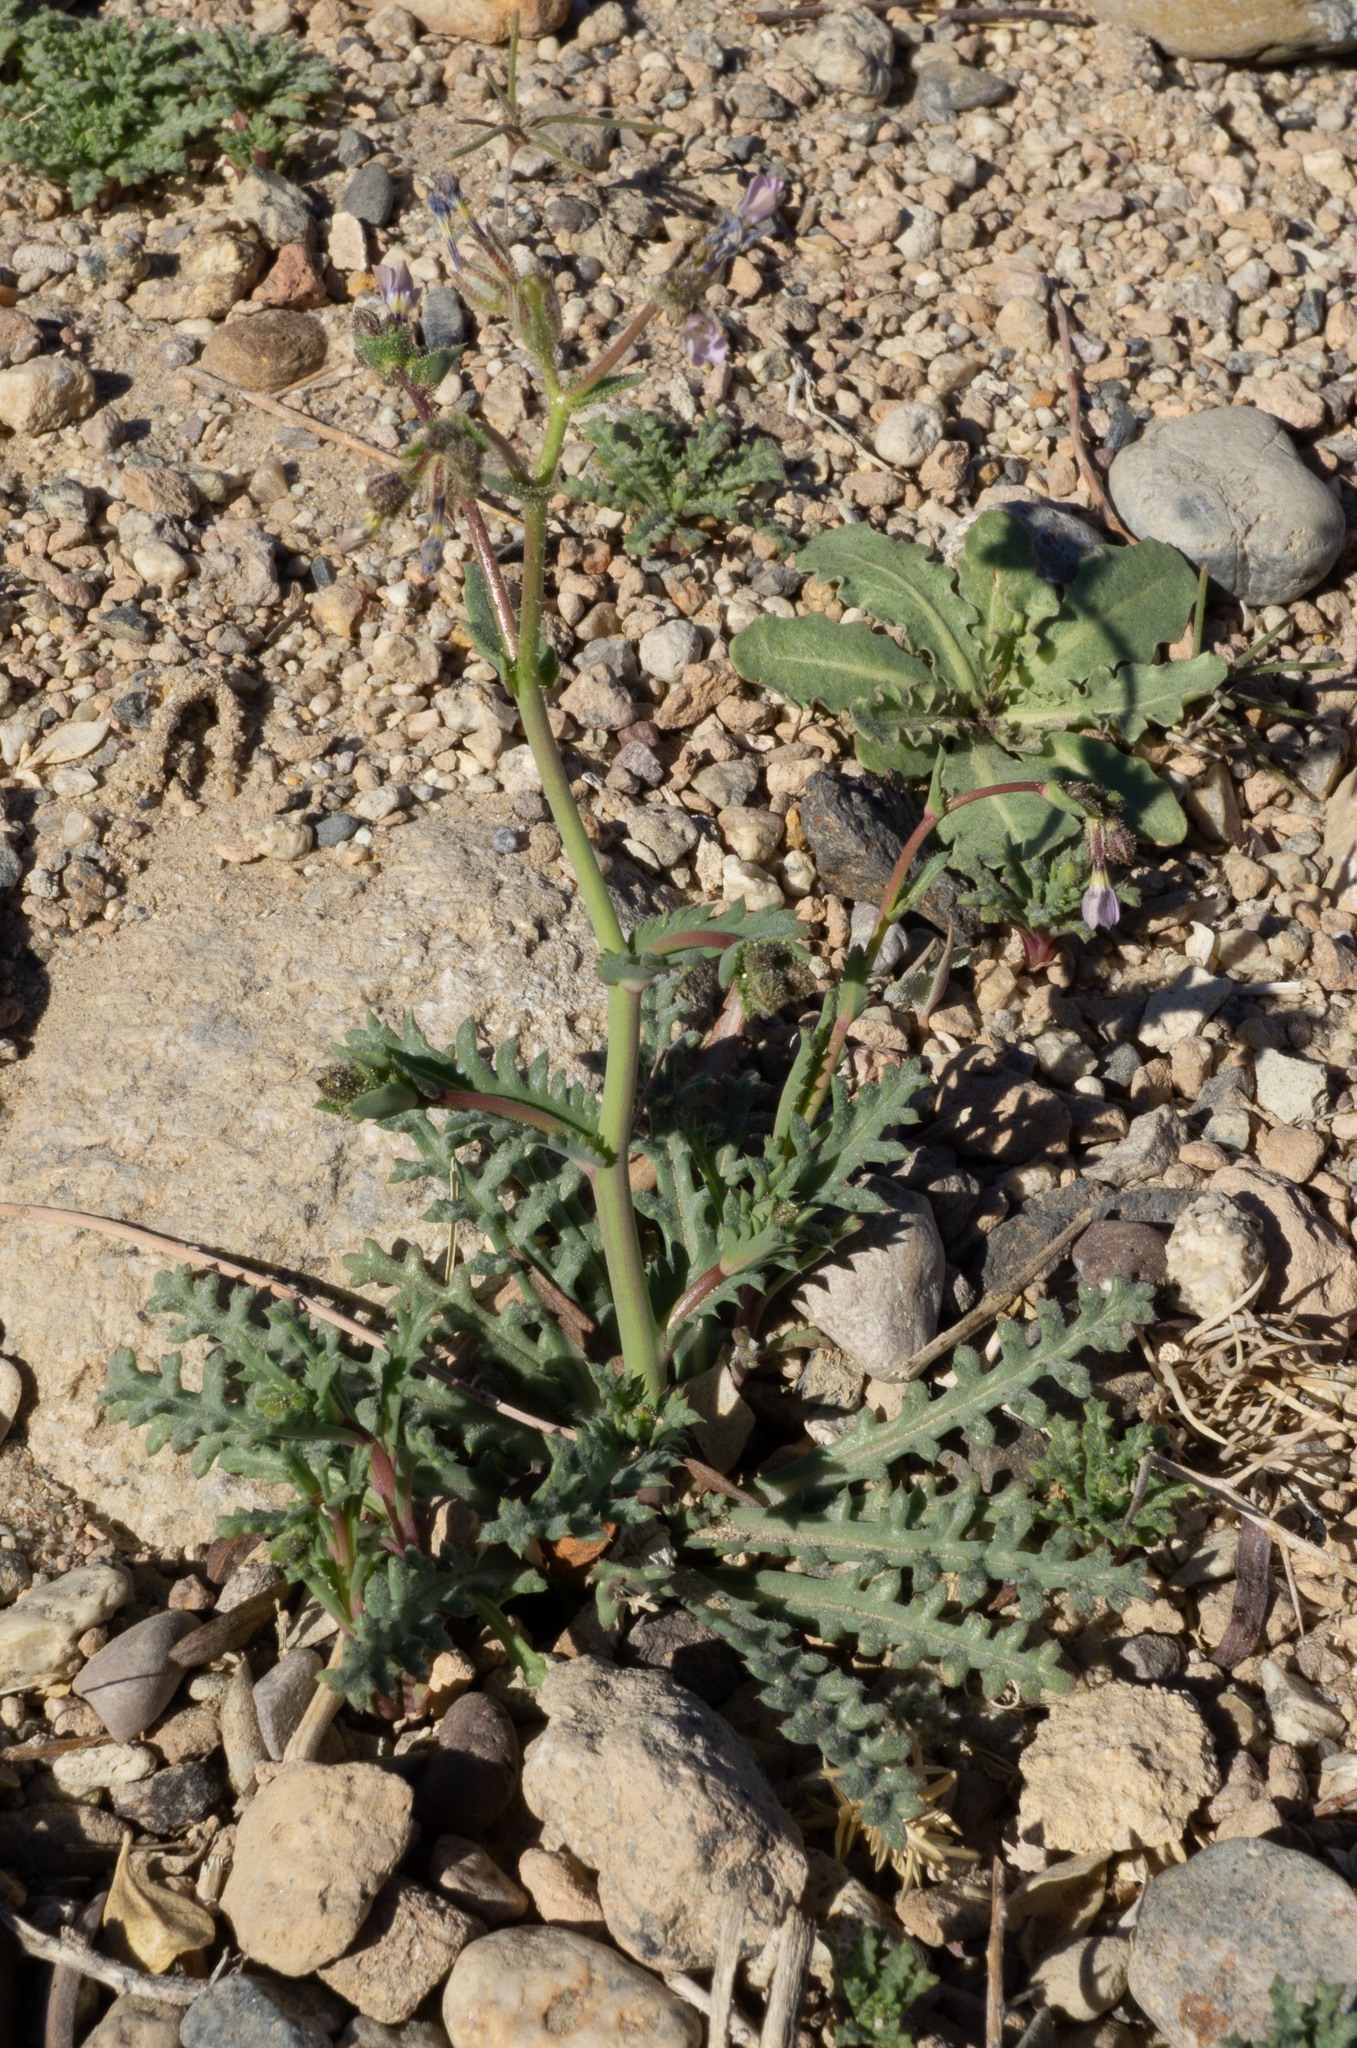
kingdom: Plantae
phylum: Tracheophyta
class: Magnoliopsida
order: Ericales
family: Polemoniaceae
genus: Gilia
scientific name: Gilia sinuata
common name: Rosy gilia
